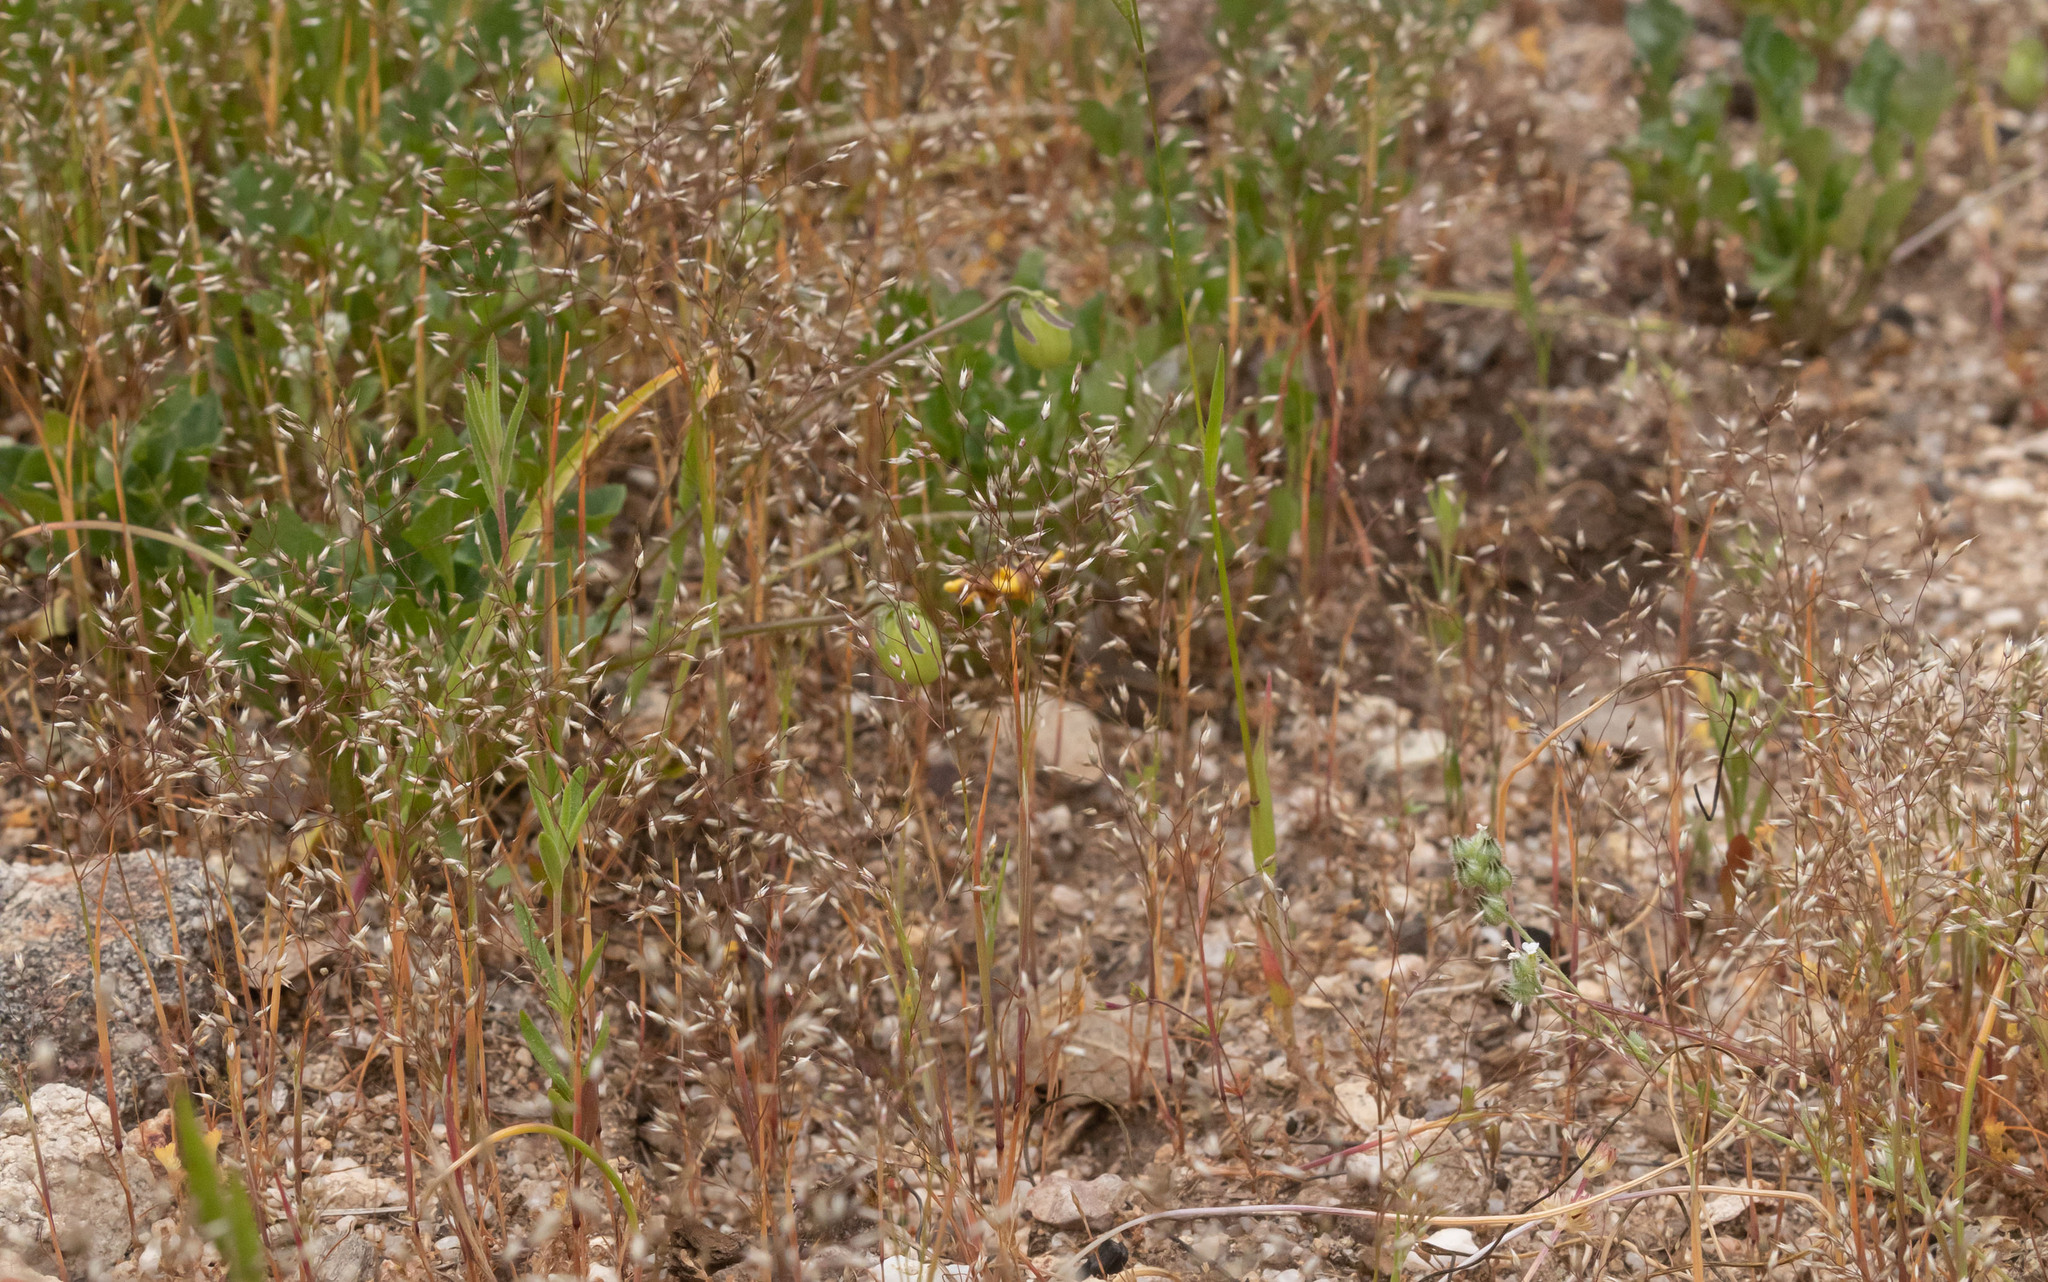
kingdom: Plantae
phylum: Tracheophyta
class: Liliopsida
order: Poales
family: Poaceae
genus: Aira
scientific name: Aira caryophyllea
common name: Silver hairgrass
